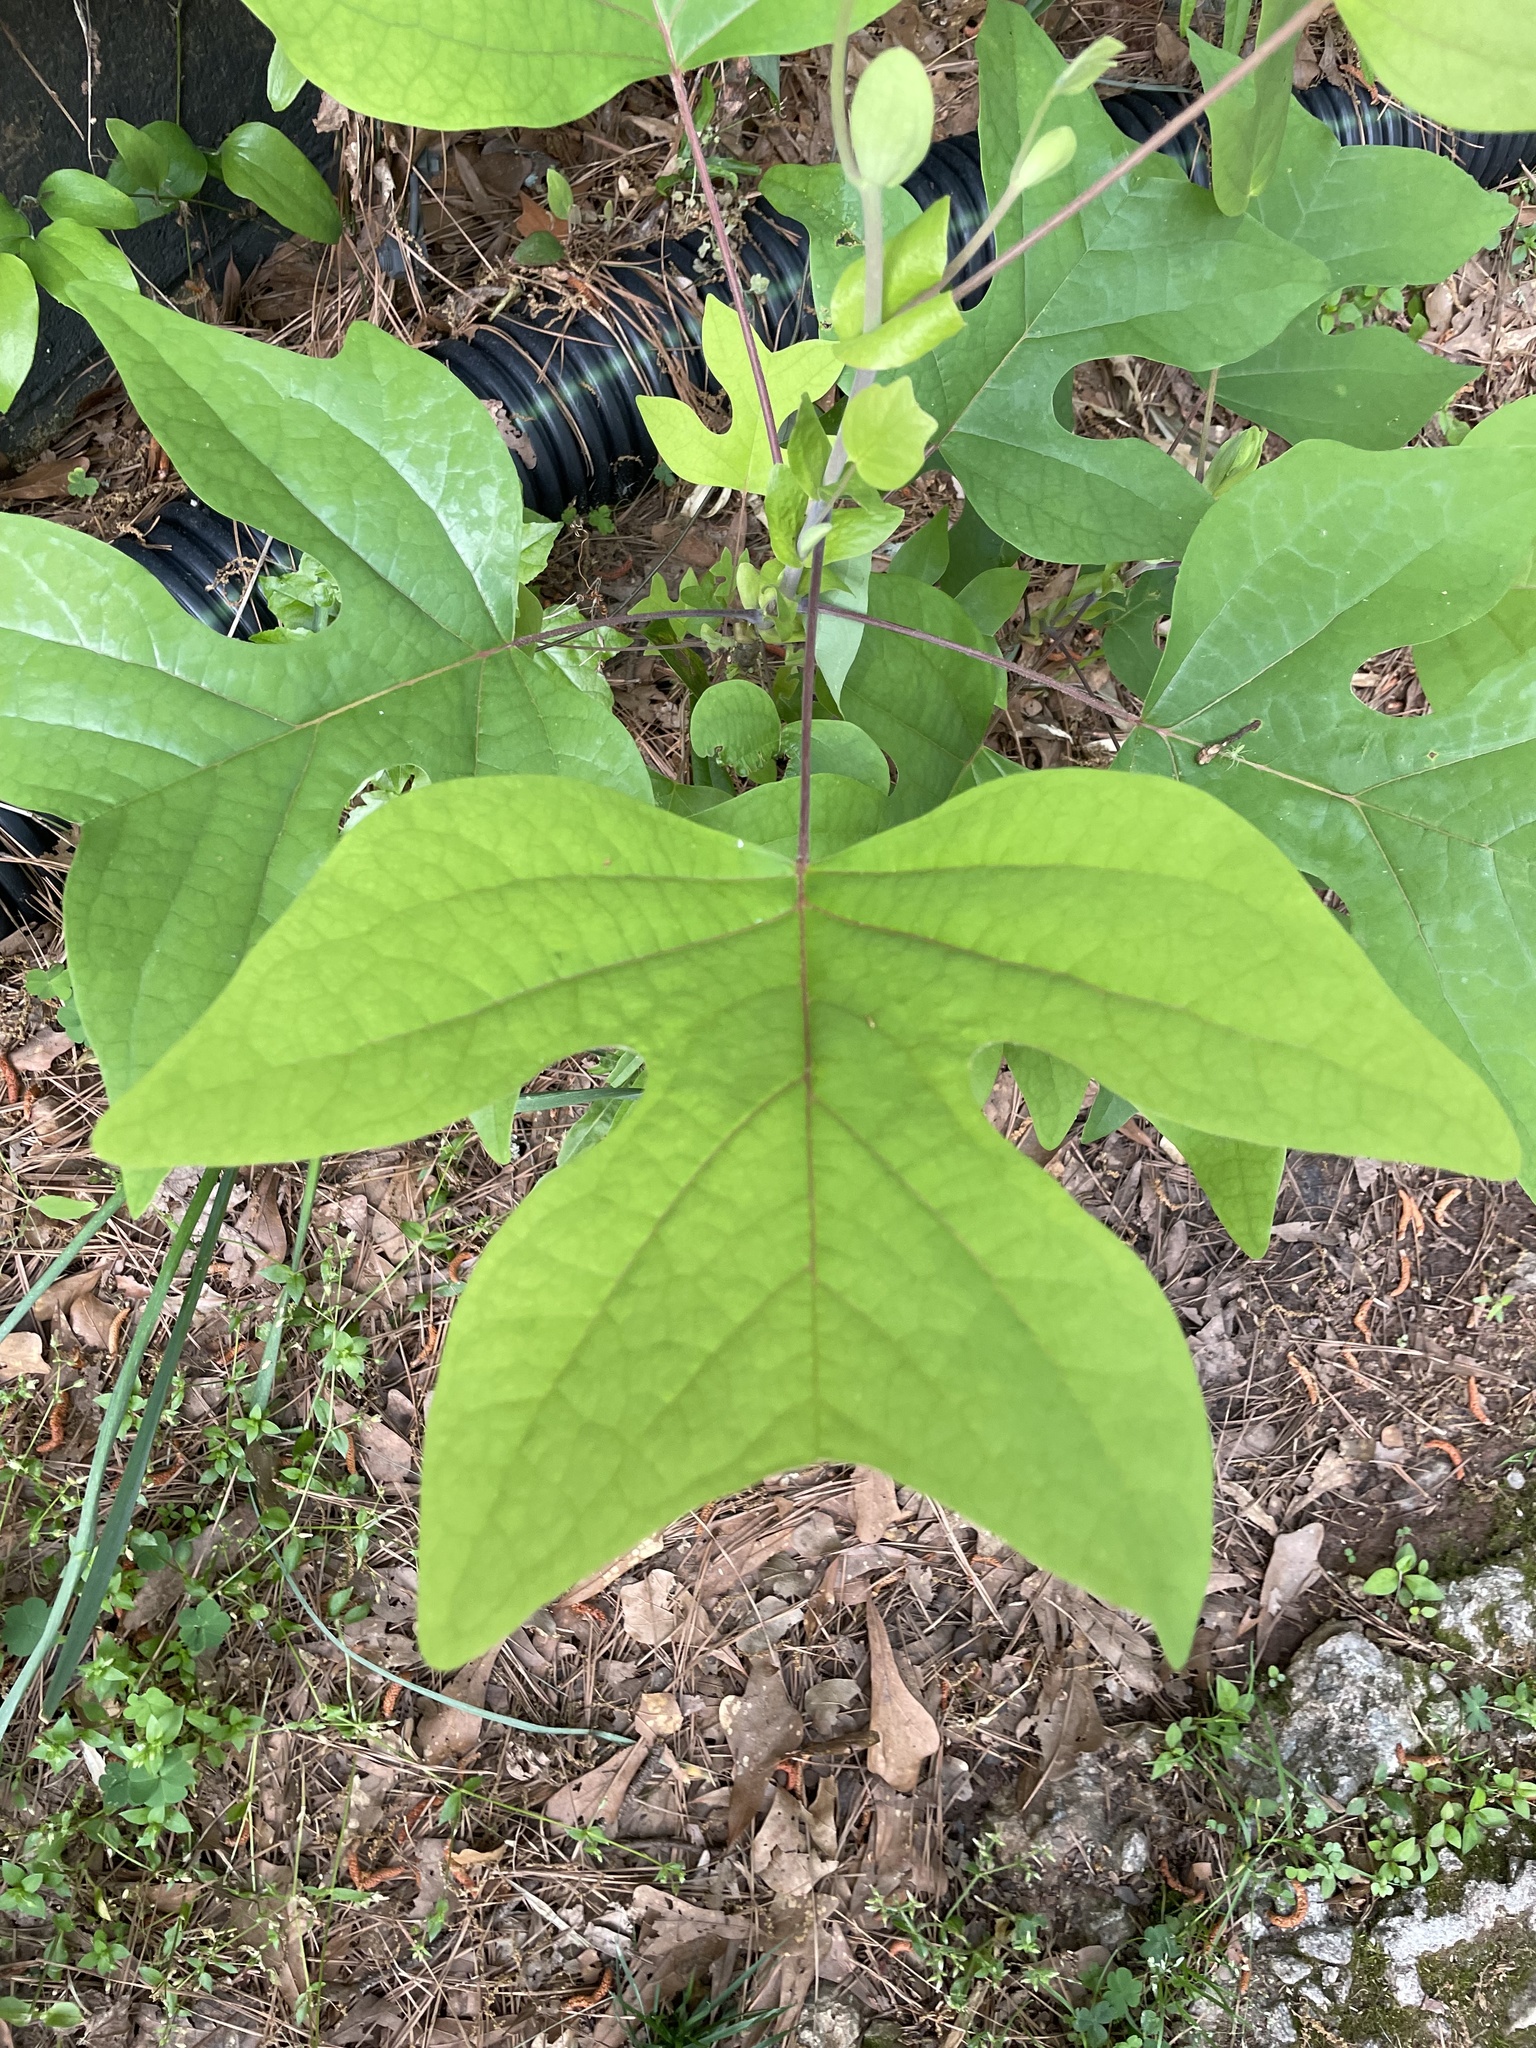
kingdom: Plantae
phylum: Tracheophyta
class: Magnoliopsida
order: Magnoliales
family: Magnoliaceae
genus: Liriodendron
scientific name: Liriodendron tulipifera
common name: Tulip tree
